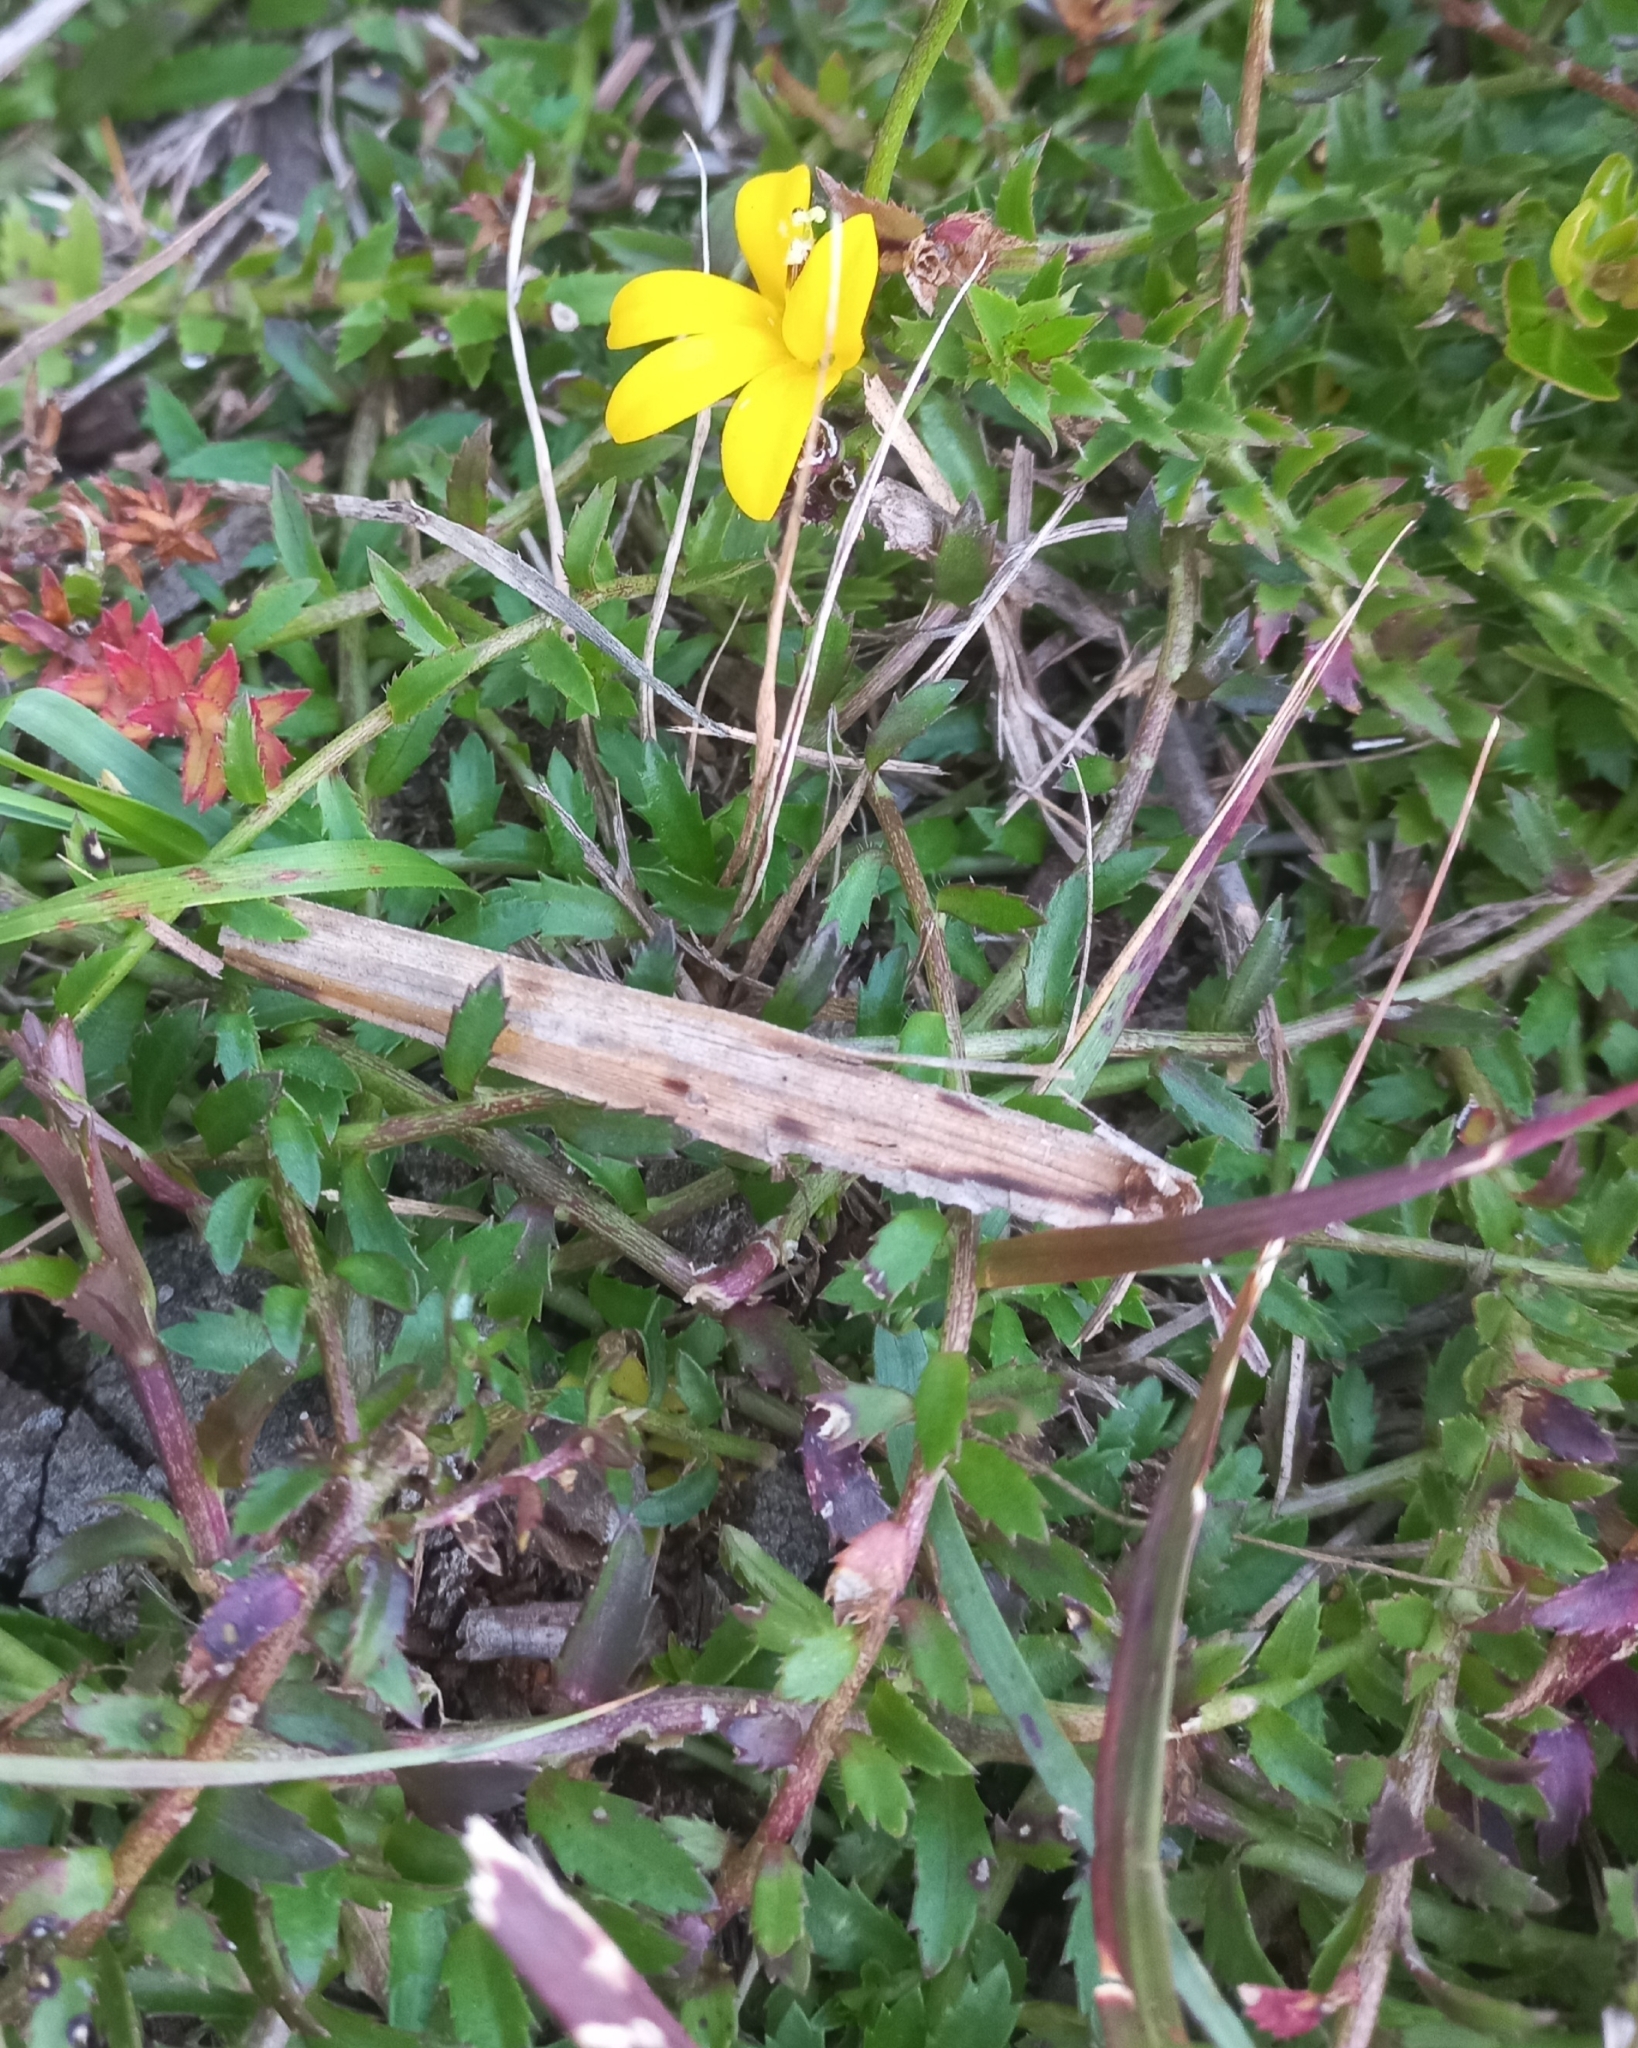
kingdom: Plantae
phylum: Tracheophyta
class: Magnoliopsida
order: Asterales
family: Campanulaceae
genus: Monopsis
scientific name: Monopsis lutea
